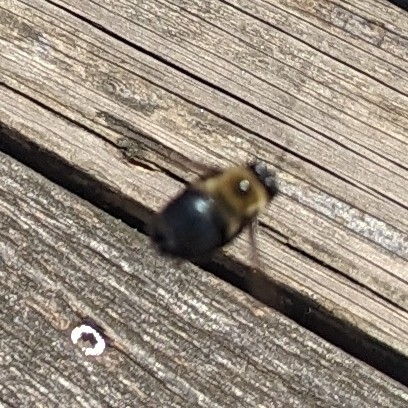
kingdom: Animalia
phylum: Arthropoda
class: Insecta
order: Hymenoptera
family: Apidae
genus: Xylocopa
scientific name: Xylocopa virginica
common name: Carpenter bee
